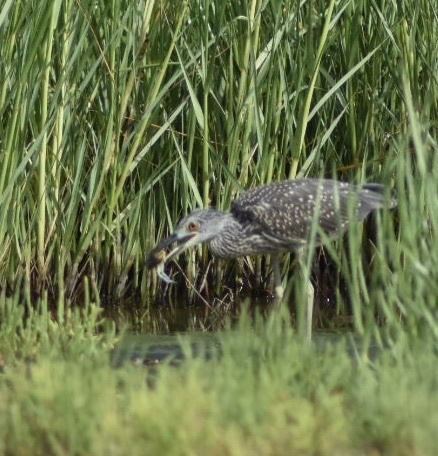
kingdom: Animalia
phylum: Chordata
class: Aves
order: Pelecaniformes
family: Ardeidae
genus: Nyctanassa
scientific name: Nyctanassa violacea
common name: Yellow-crowned night heron
